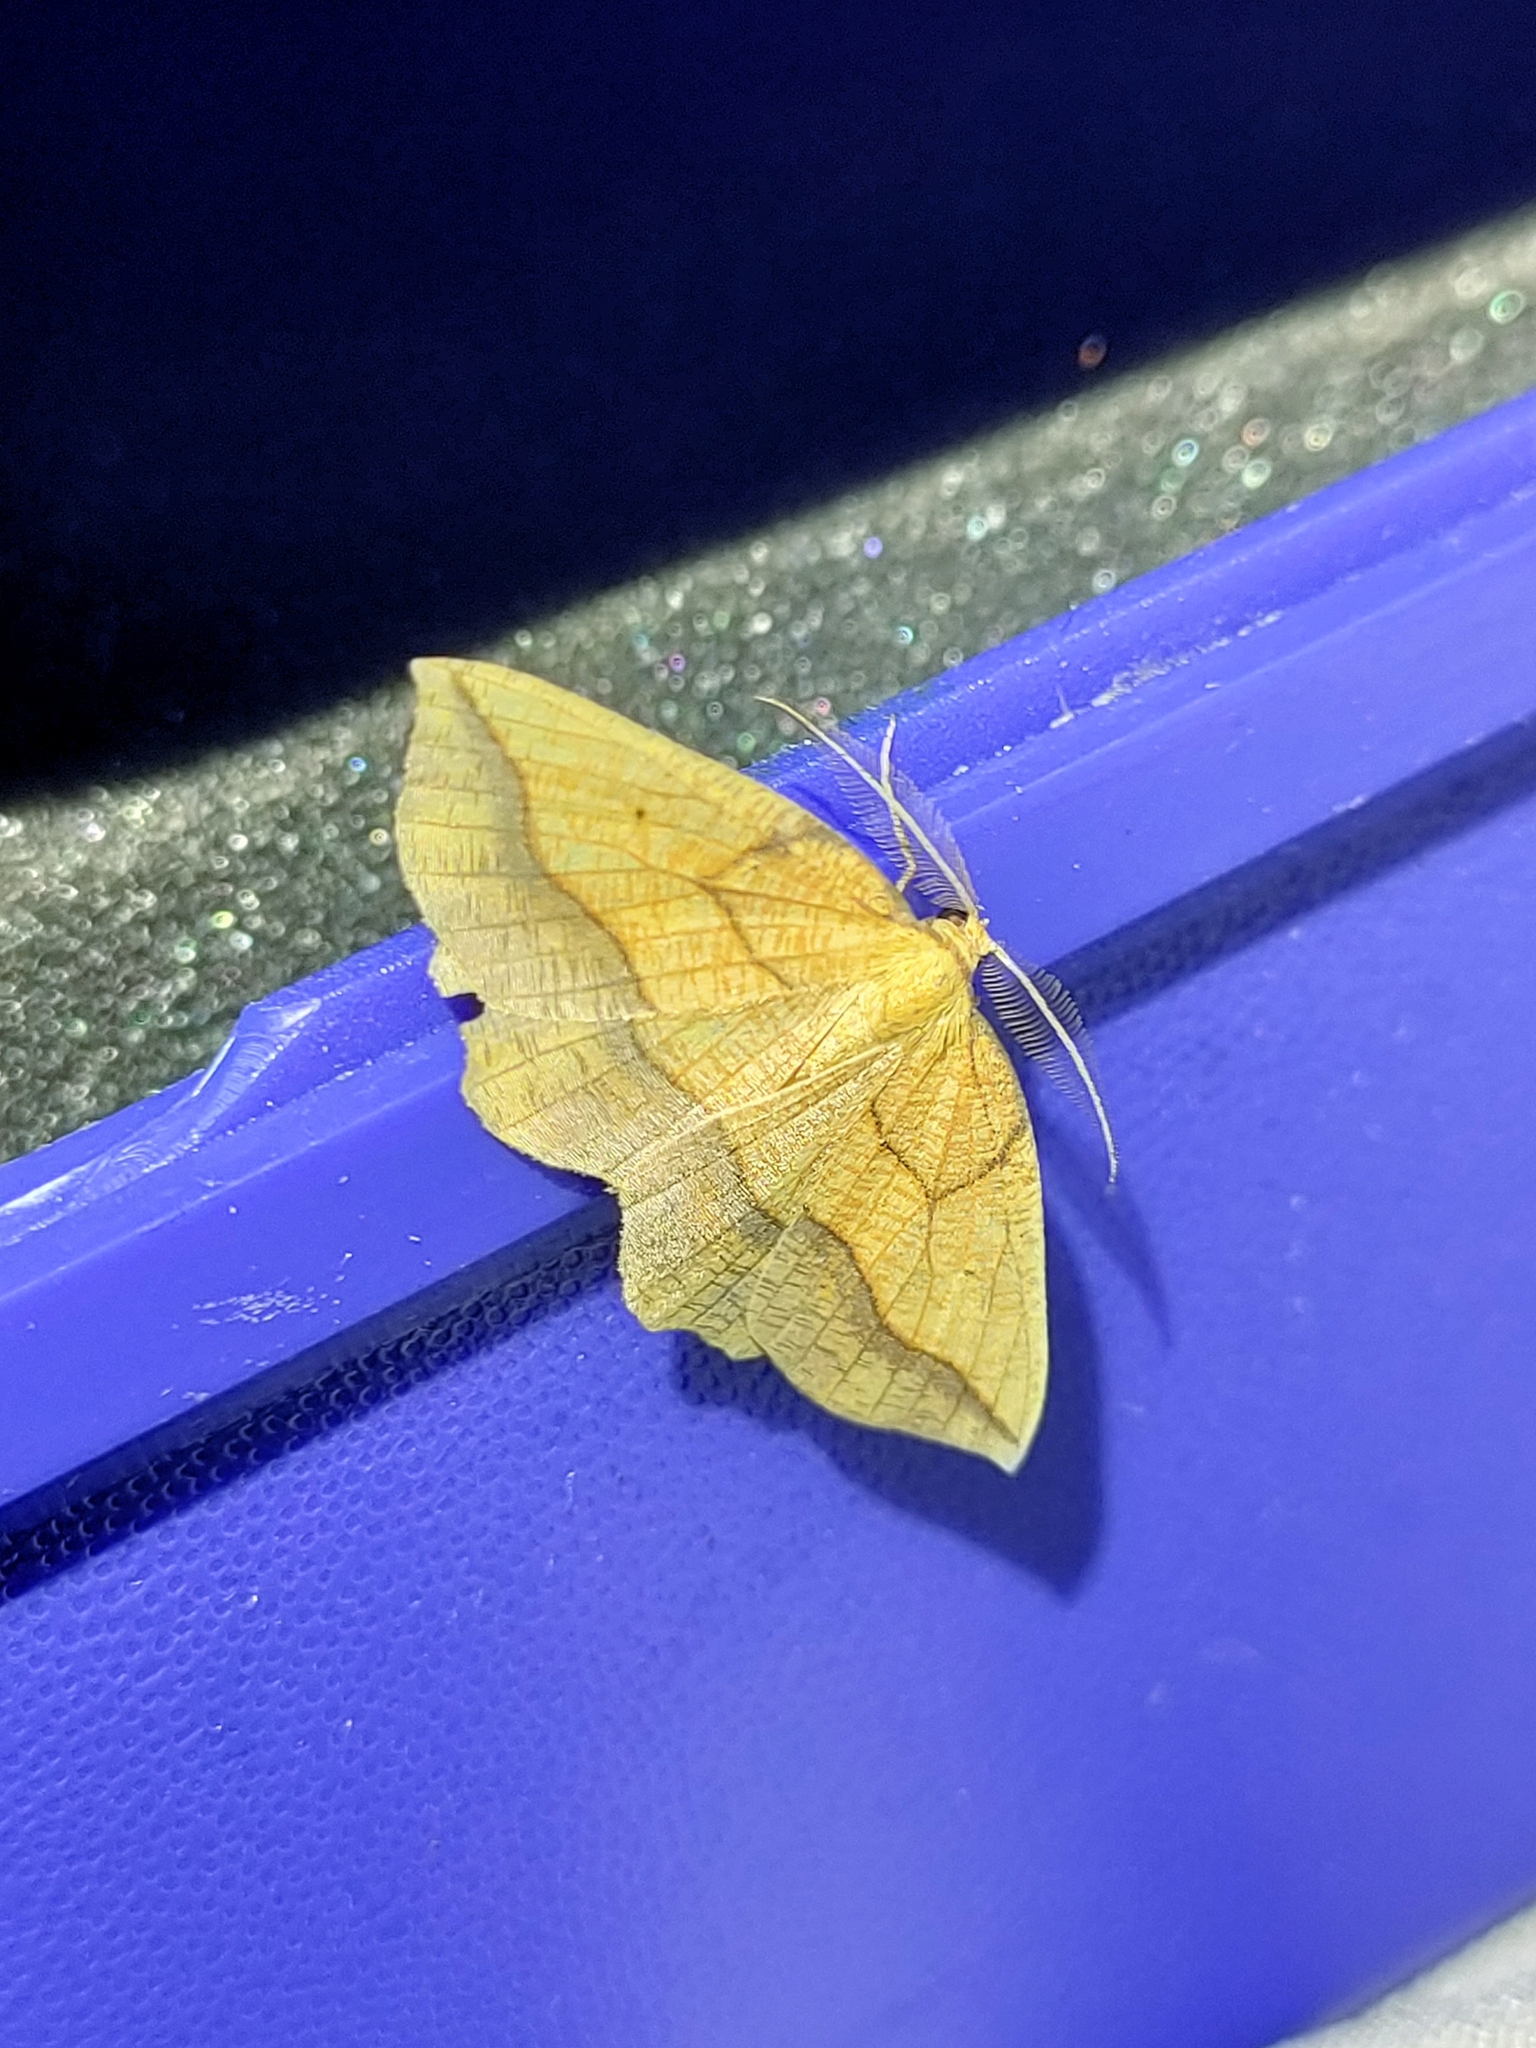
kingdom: Animalia
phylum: Arthropoda
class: Insecta
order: Lepidoptera
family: Geometridae
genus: Epione
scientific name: Epione repandaria
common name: Bordered beauty
